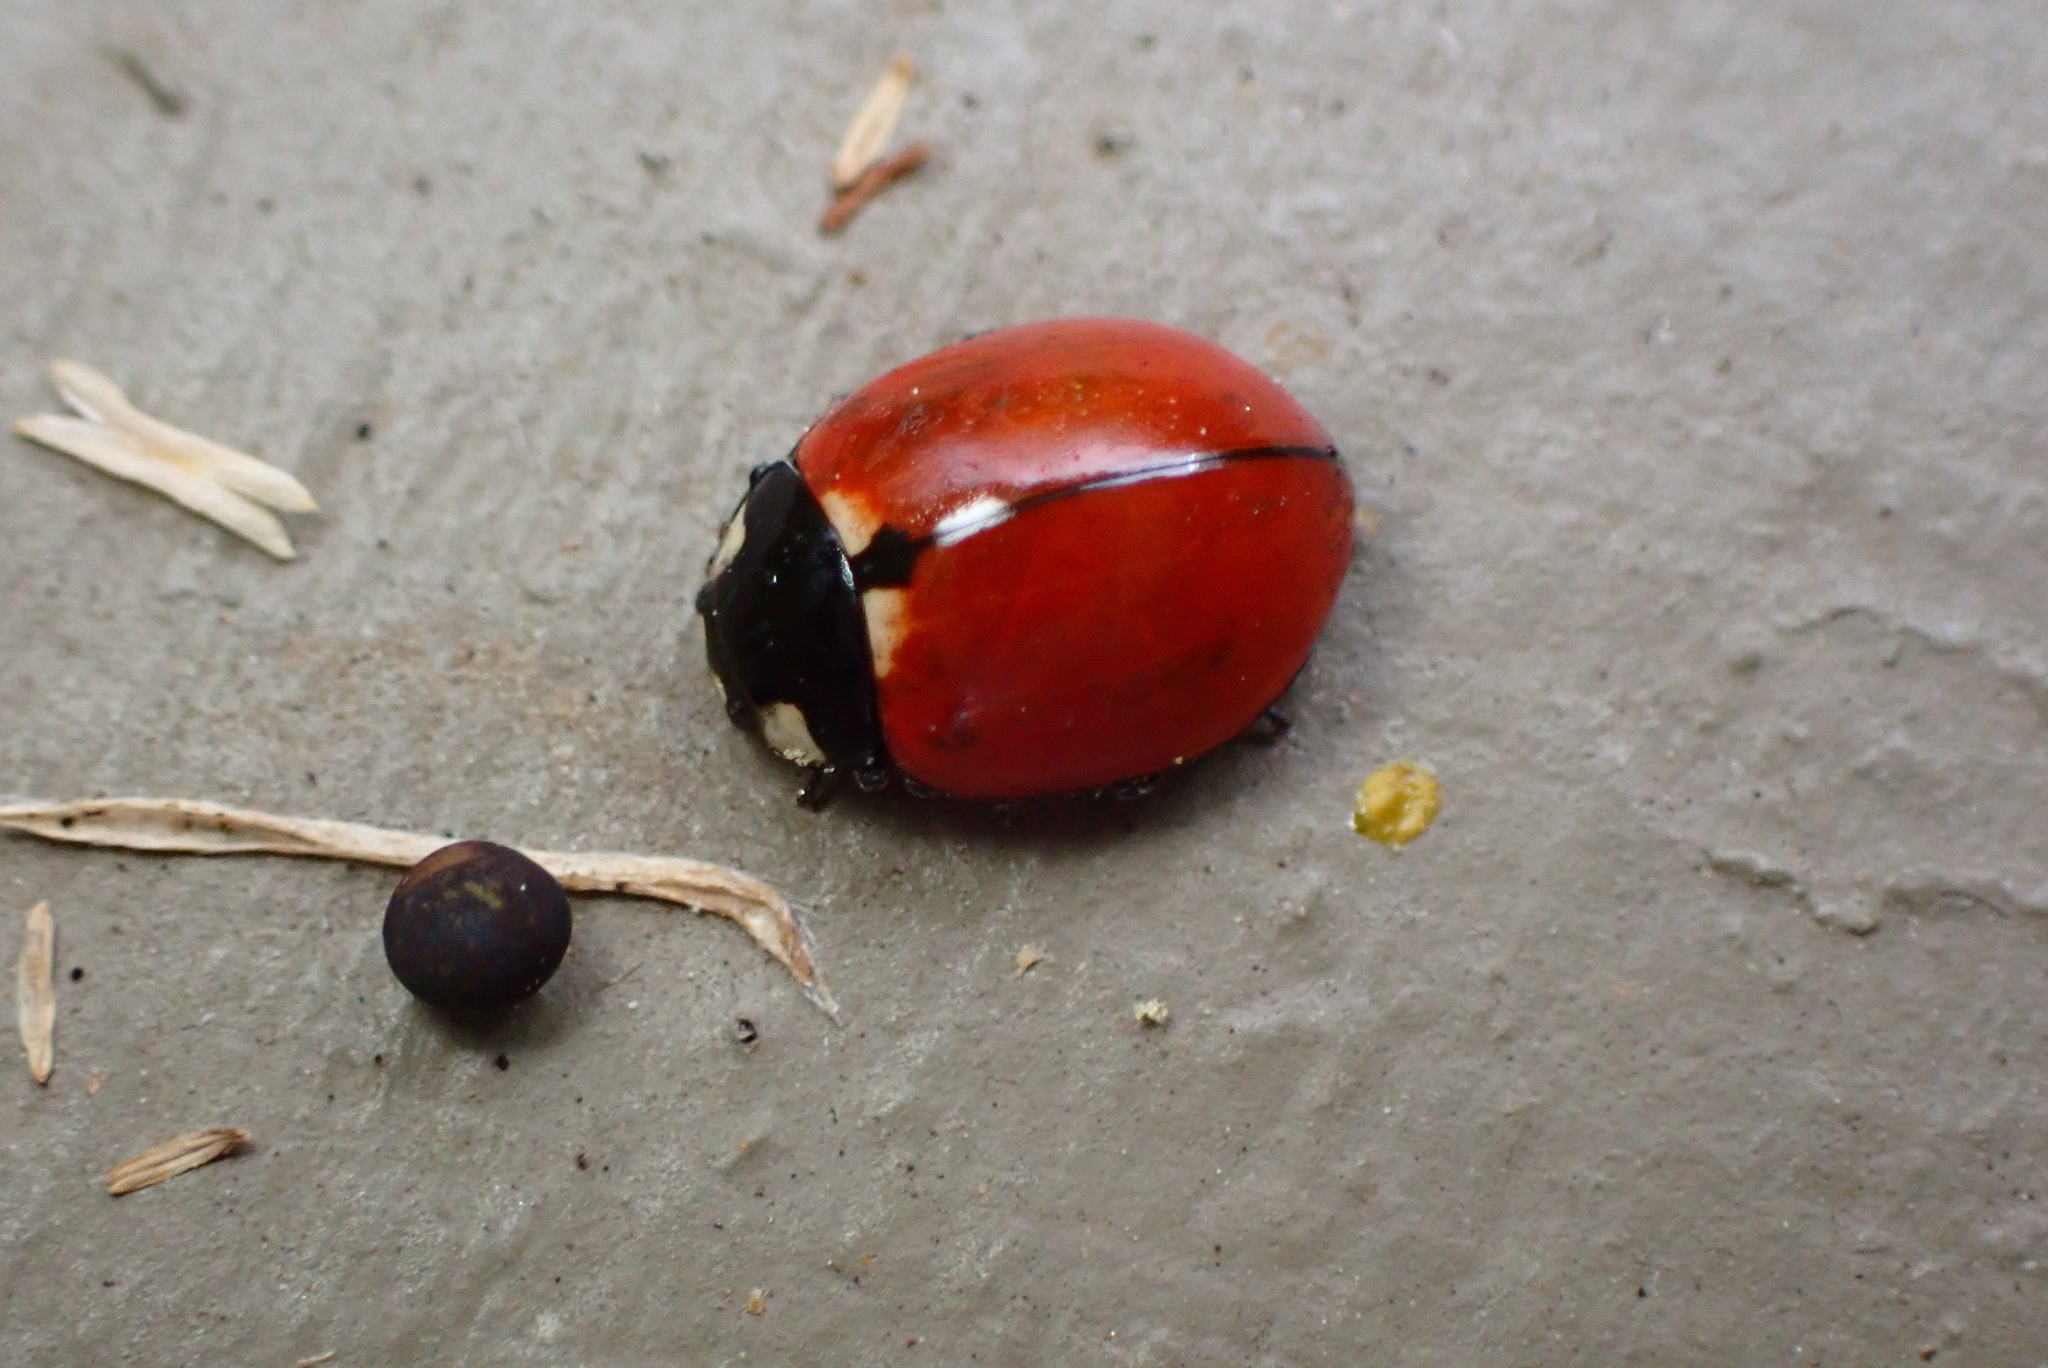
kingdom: Animalia
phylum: Arthropoda
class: Insecta
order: Coleoptera
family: Coccinellidae
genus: Coccinella
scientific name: Coccinella californica
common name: Lady beetle
